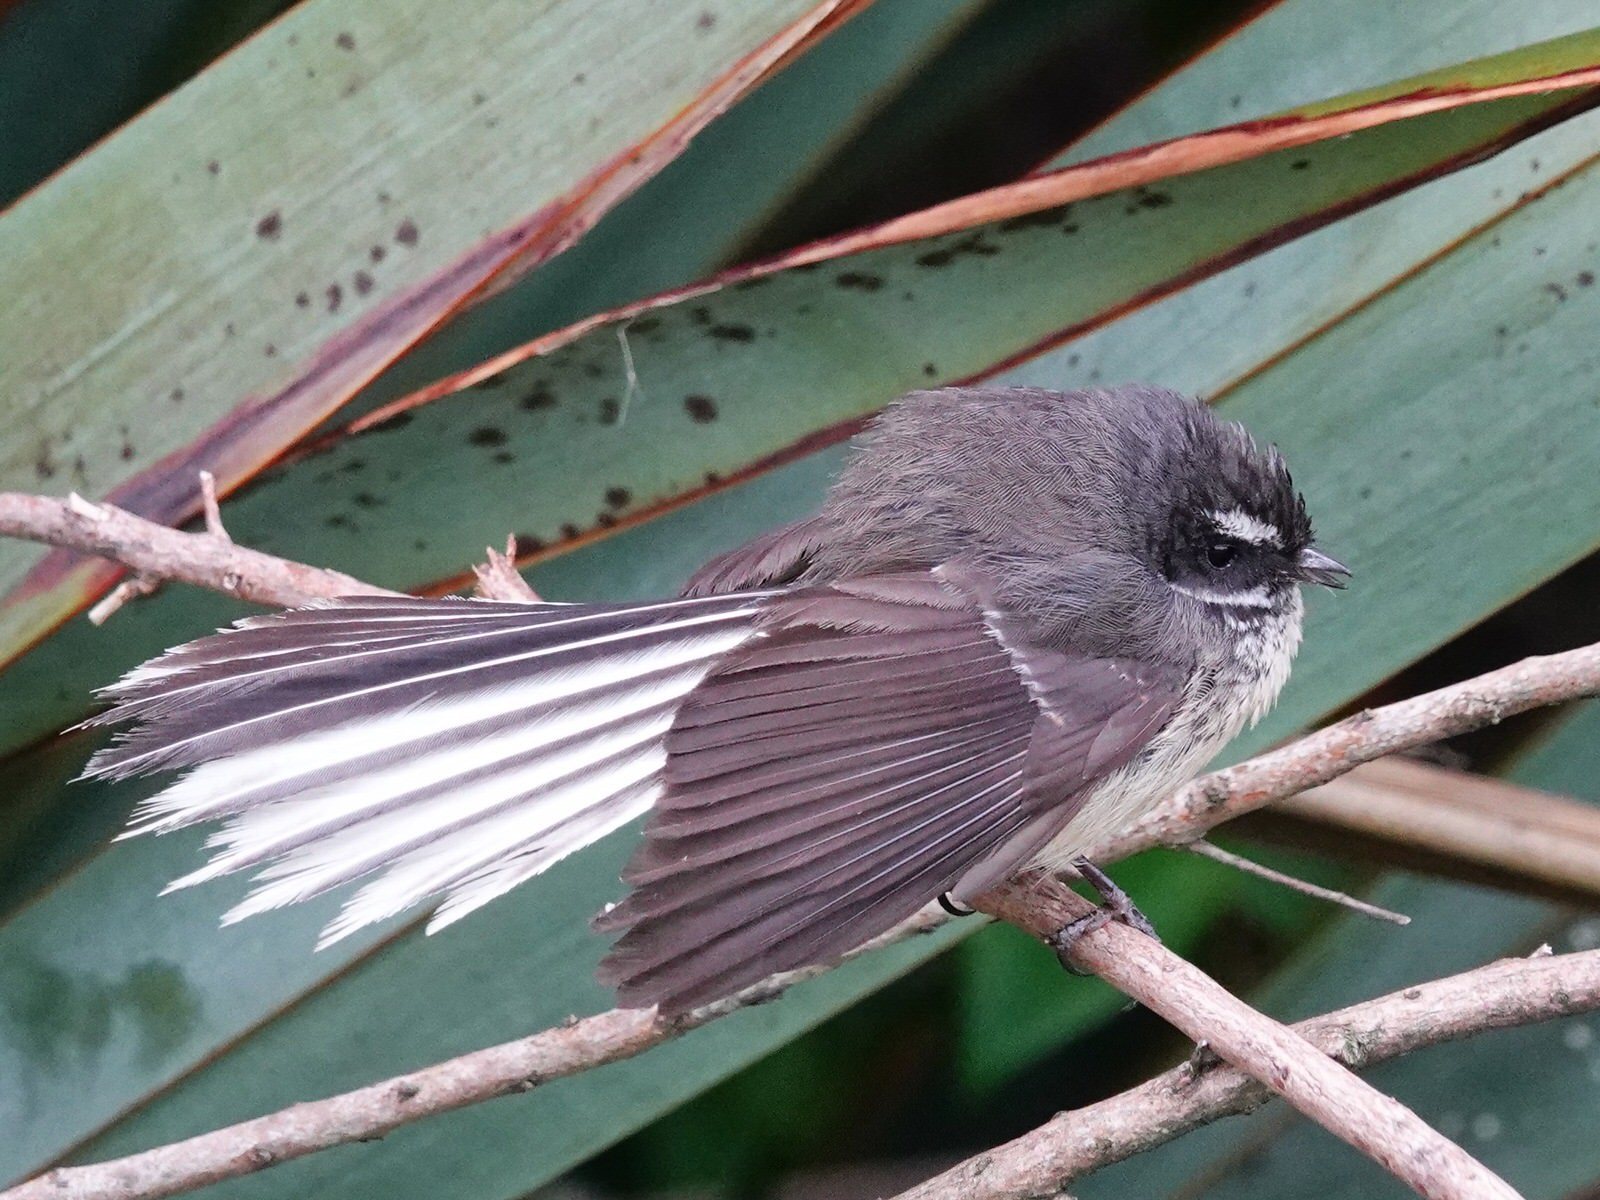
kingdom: Animalia
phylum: Chordata
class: Aves
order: Passeriformes
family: Rhipiduridae
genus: Rhipidura
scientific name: Rhipidura fuliginosa
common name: New zealand fantail
